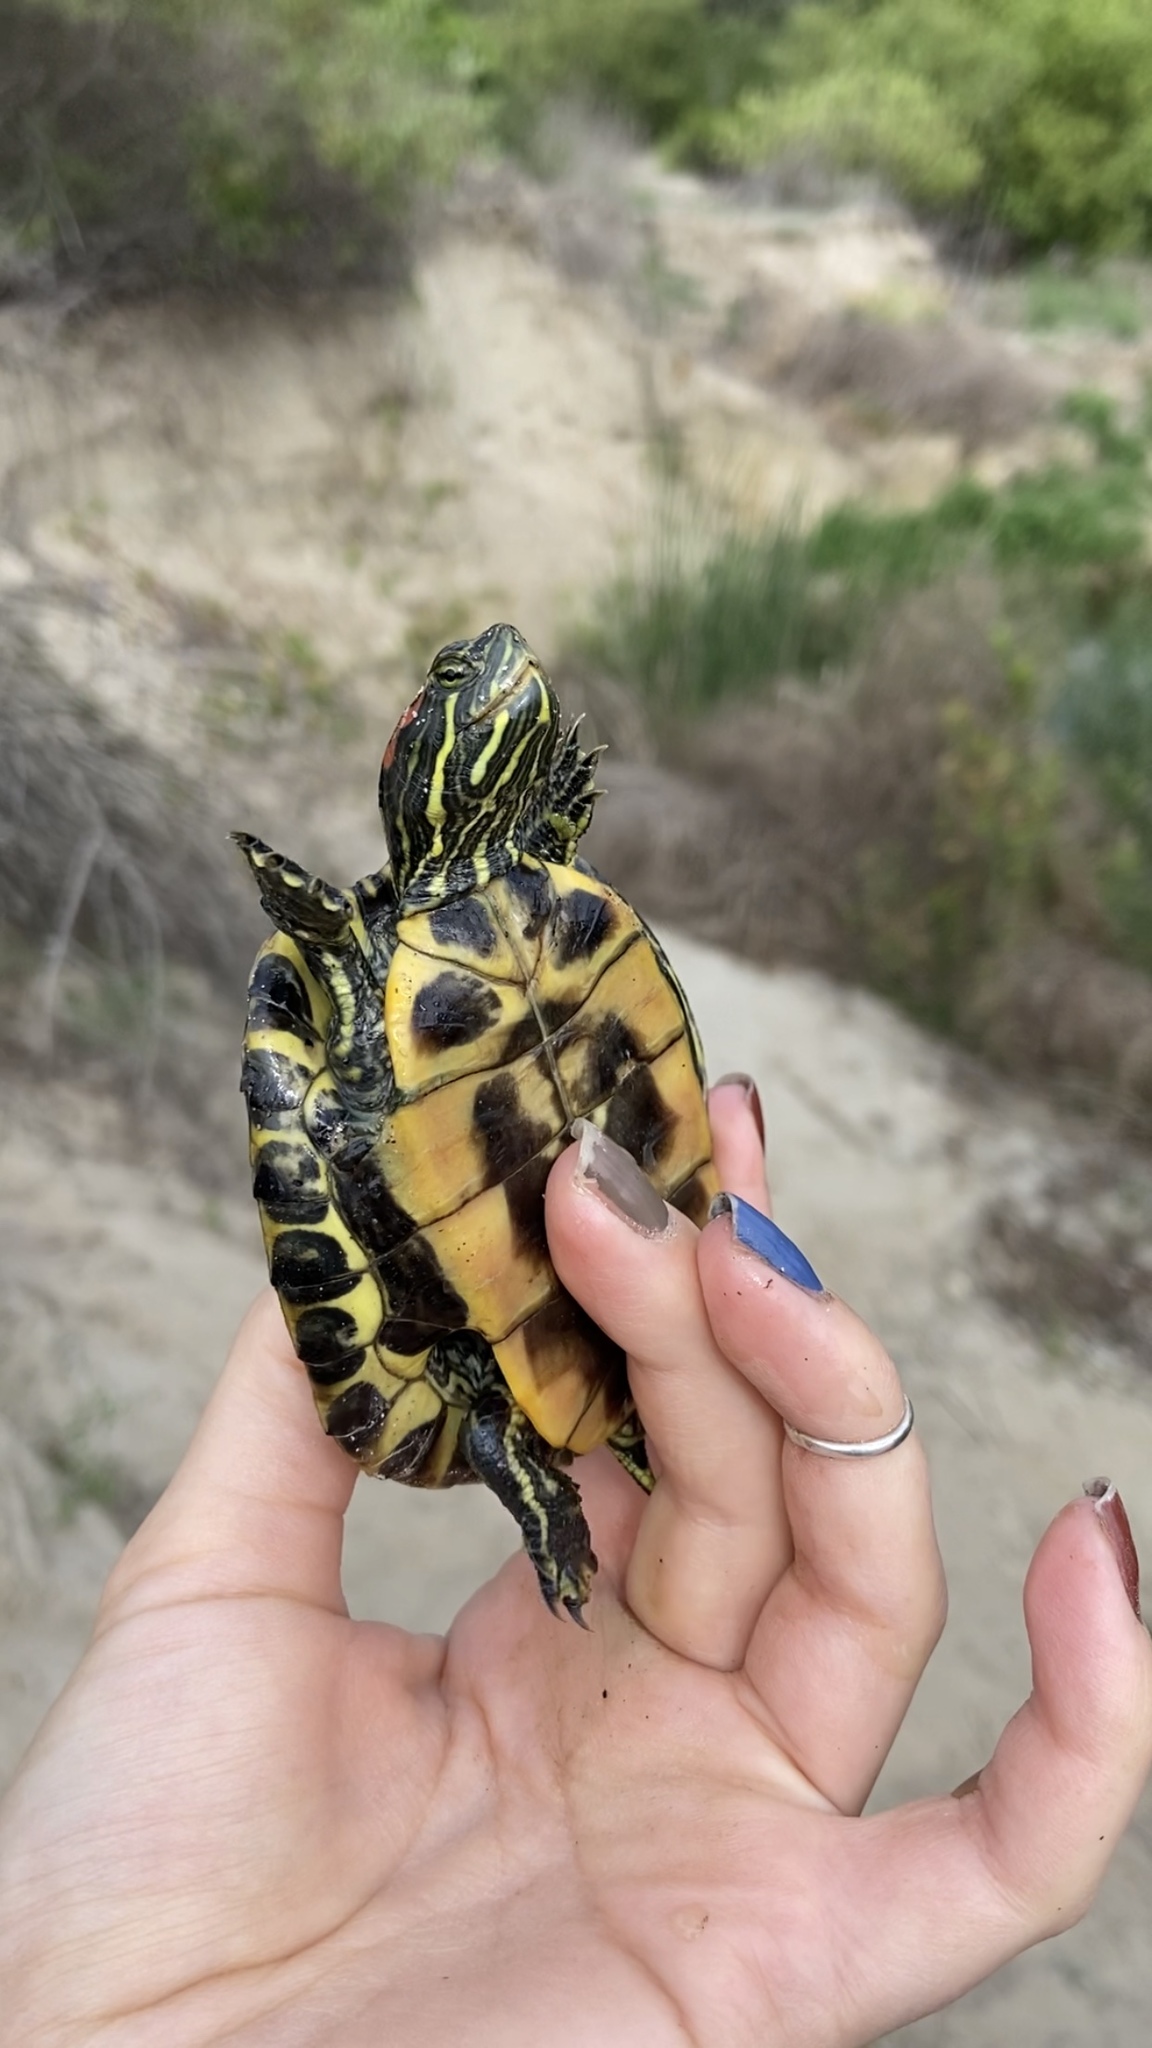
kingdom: Animalia
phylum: Chordata
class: Testudines
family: Emydidae
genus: Trachemys
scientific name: Trachemys scripta
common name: Slider
